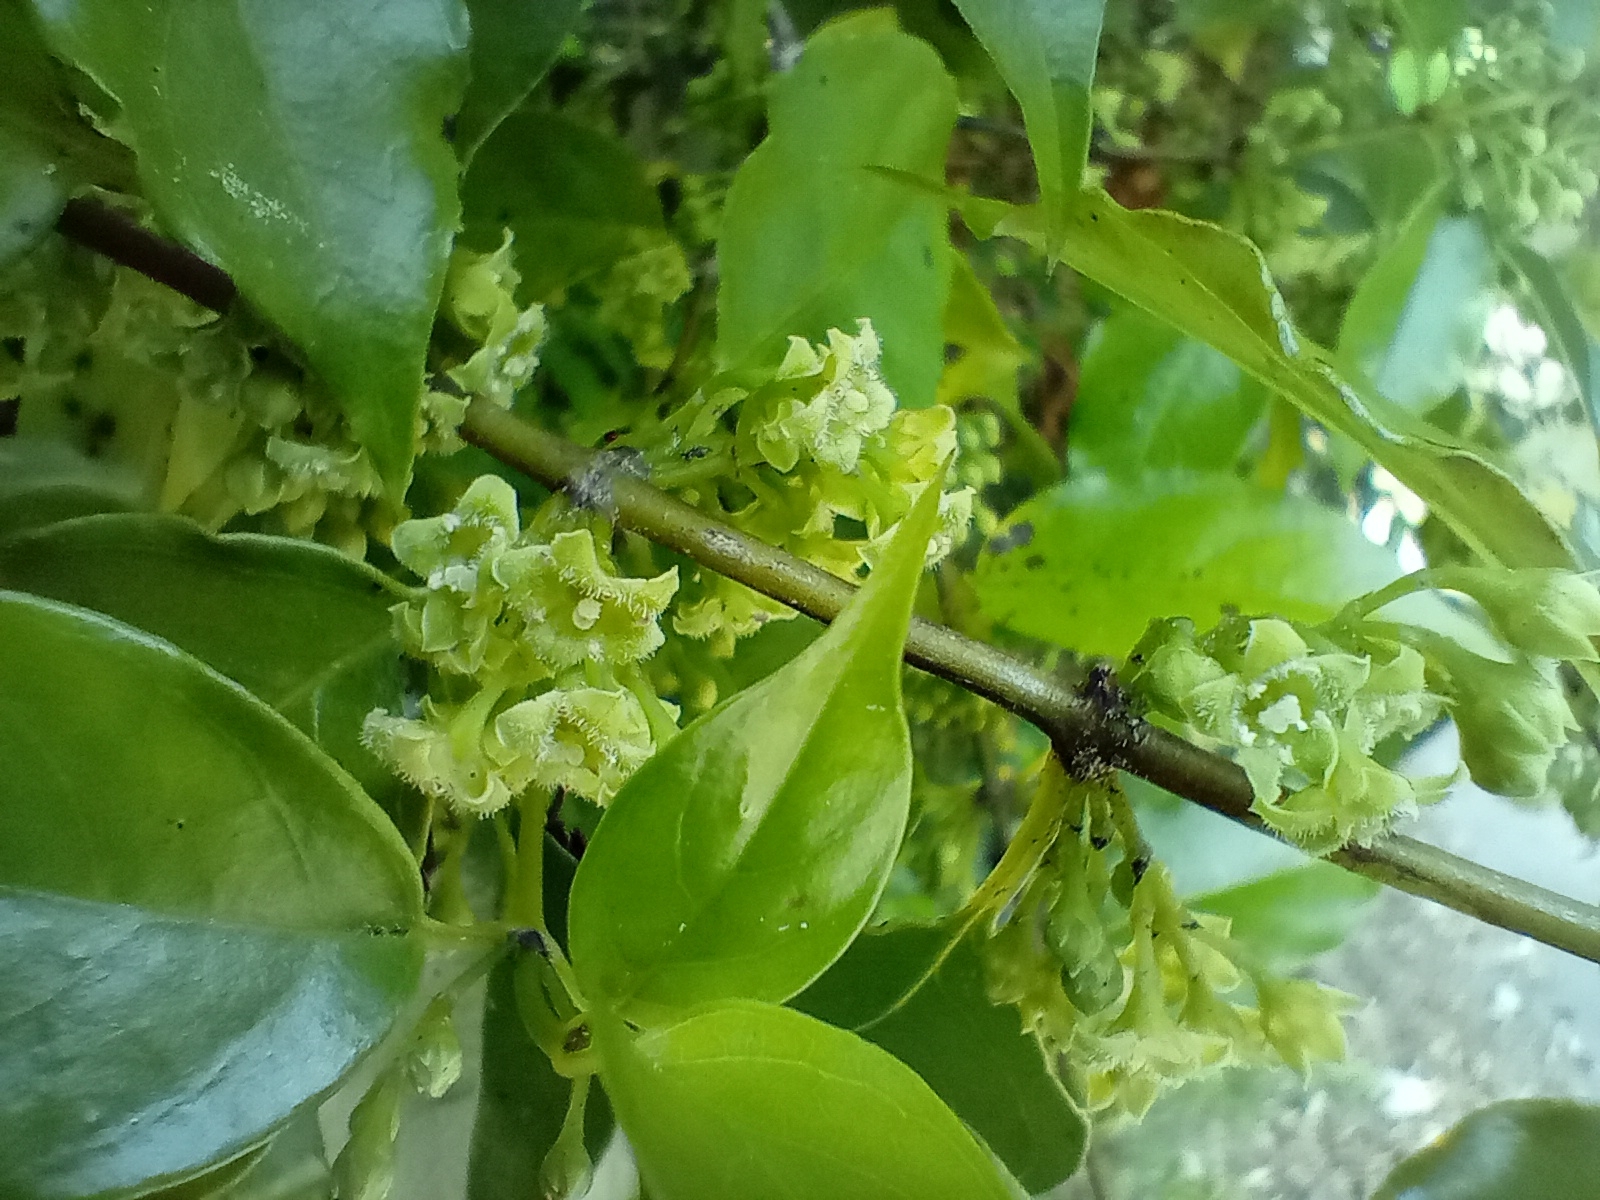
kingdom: Plantae
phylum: Tracheophyta
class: Magnoliopsida
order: Gentianales
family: Loganiaceae
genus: Geniostoma
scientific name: Geniostoma ligustrifolium
